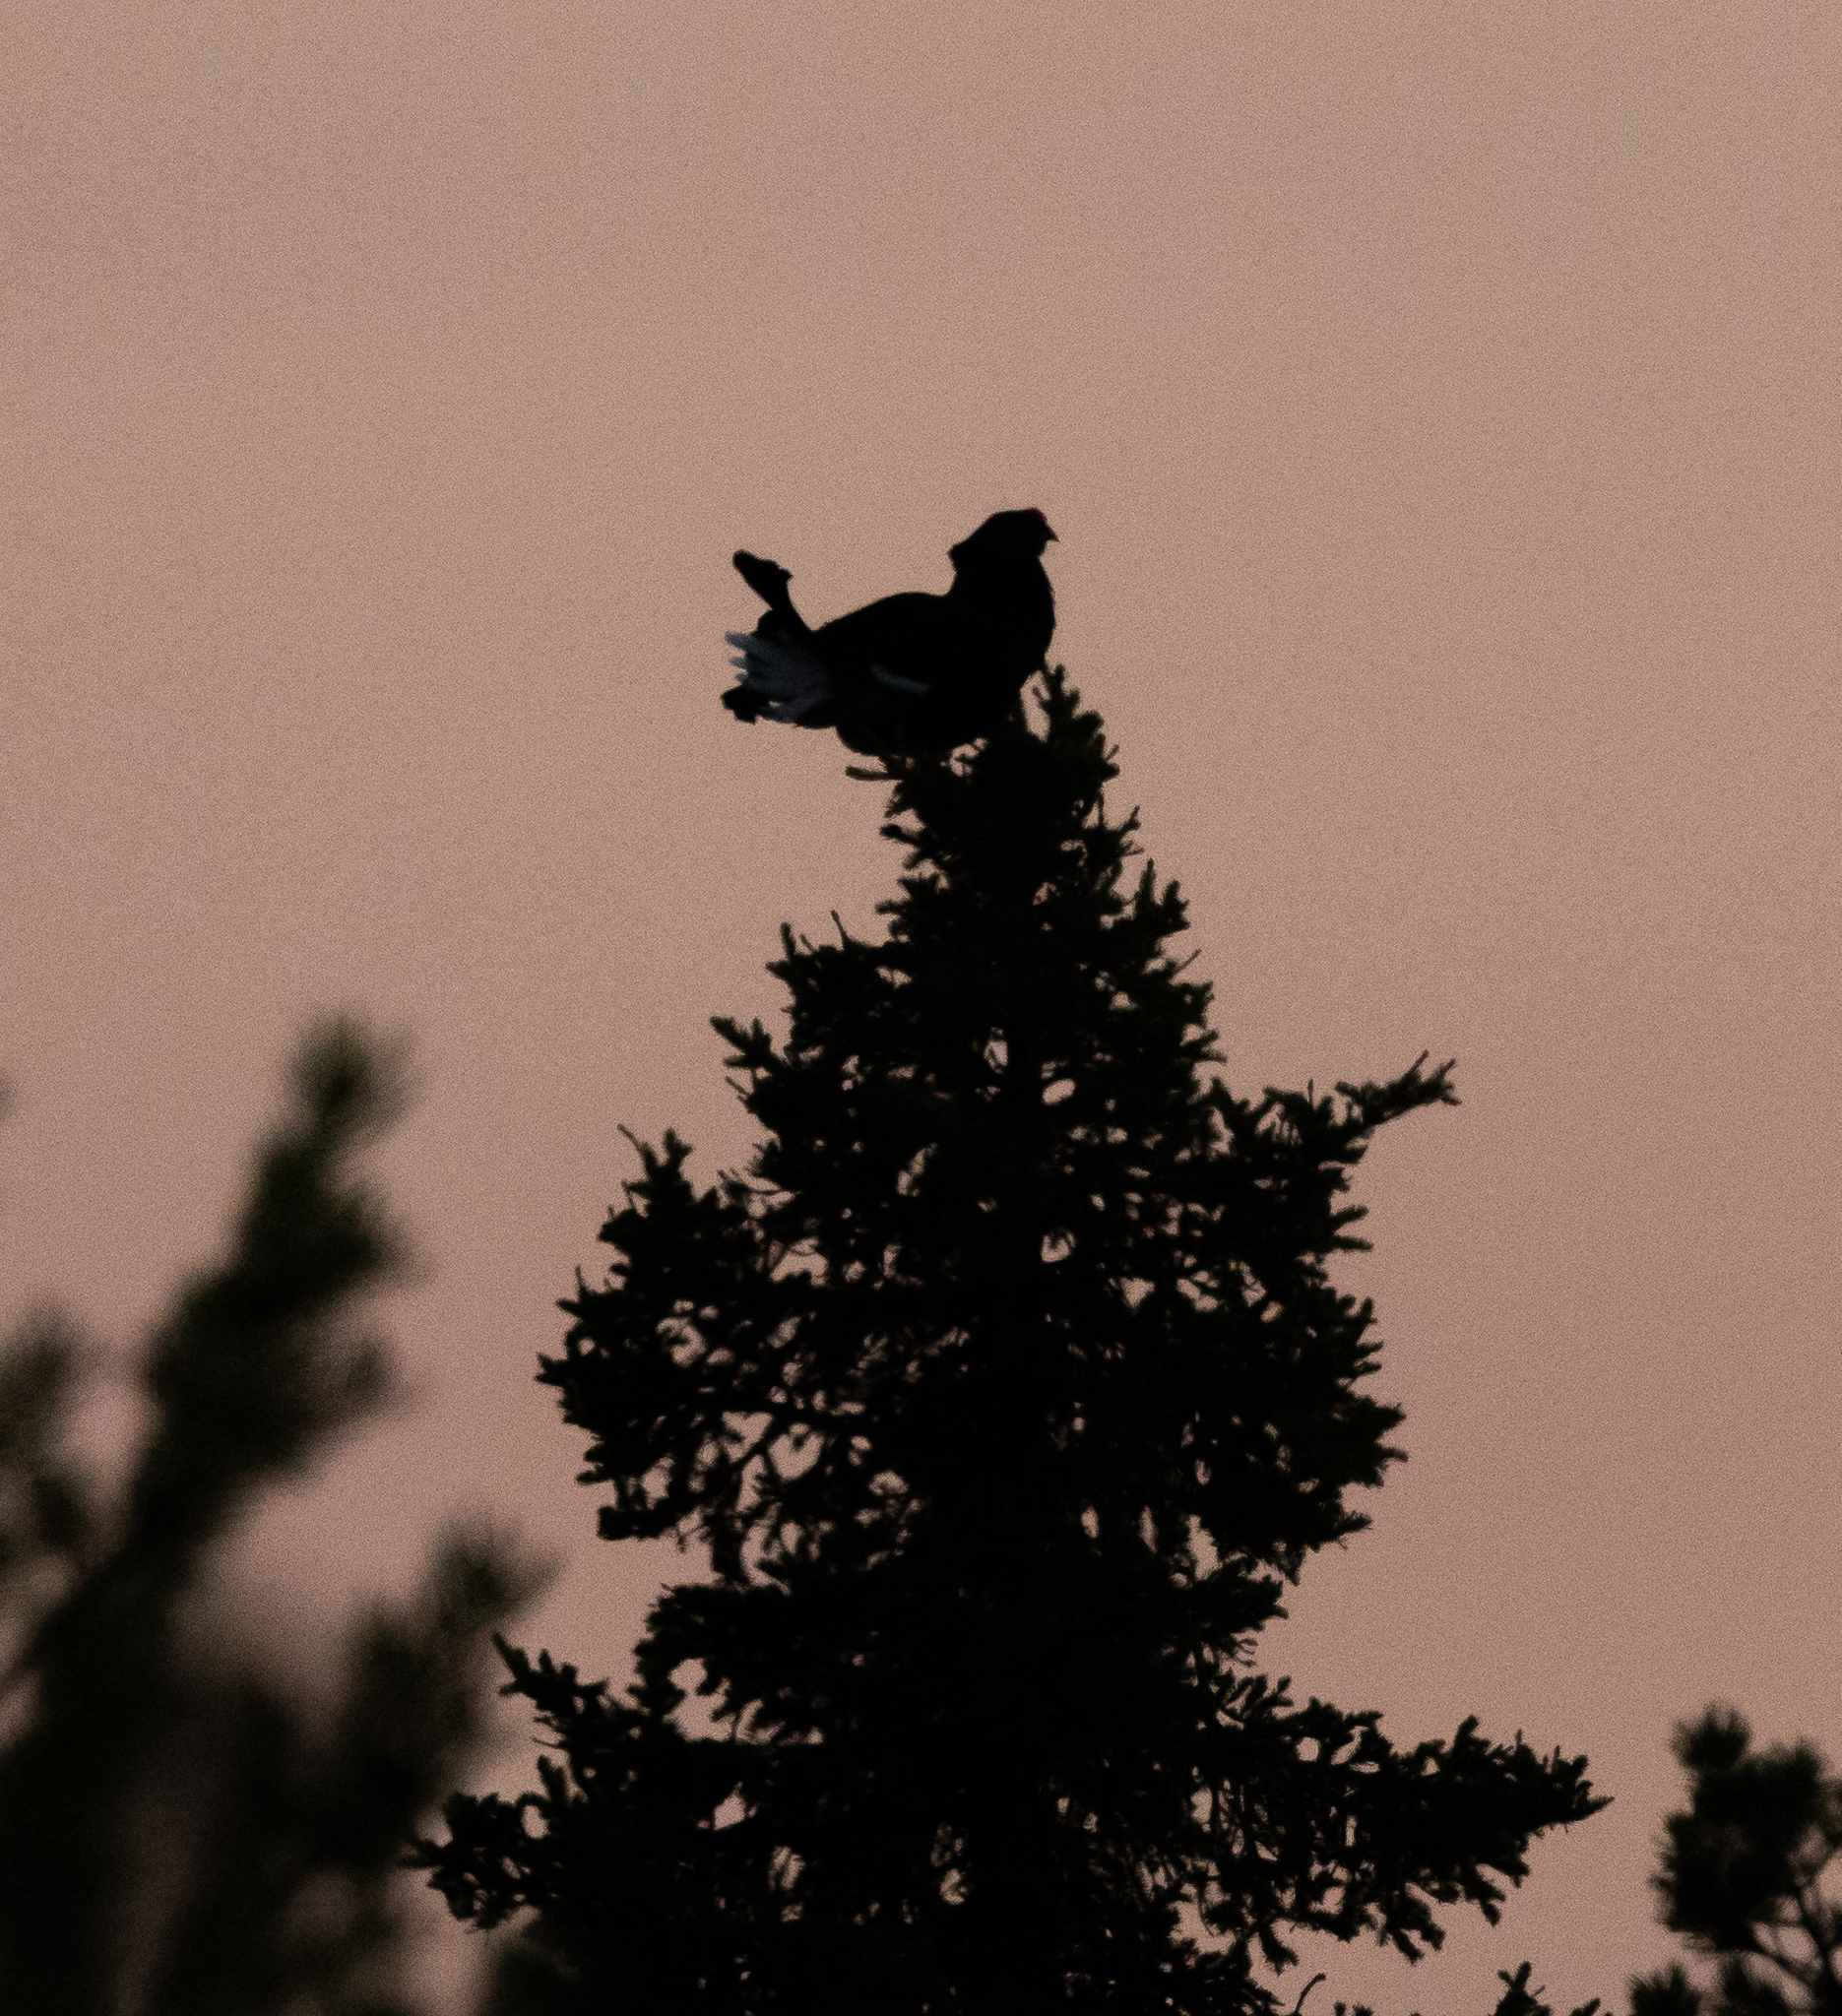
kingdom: Animalia
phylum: Chordata
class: Aves
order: Galliformes
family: Phasianidae
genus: Lyrurus
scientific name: Lyrurus tetrix
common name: Black grouse
